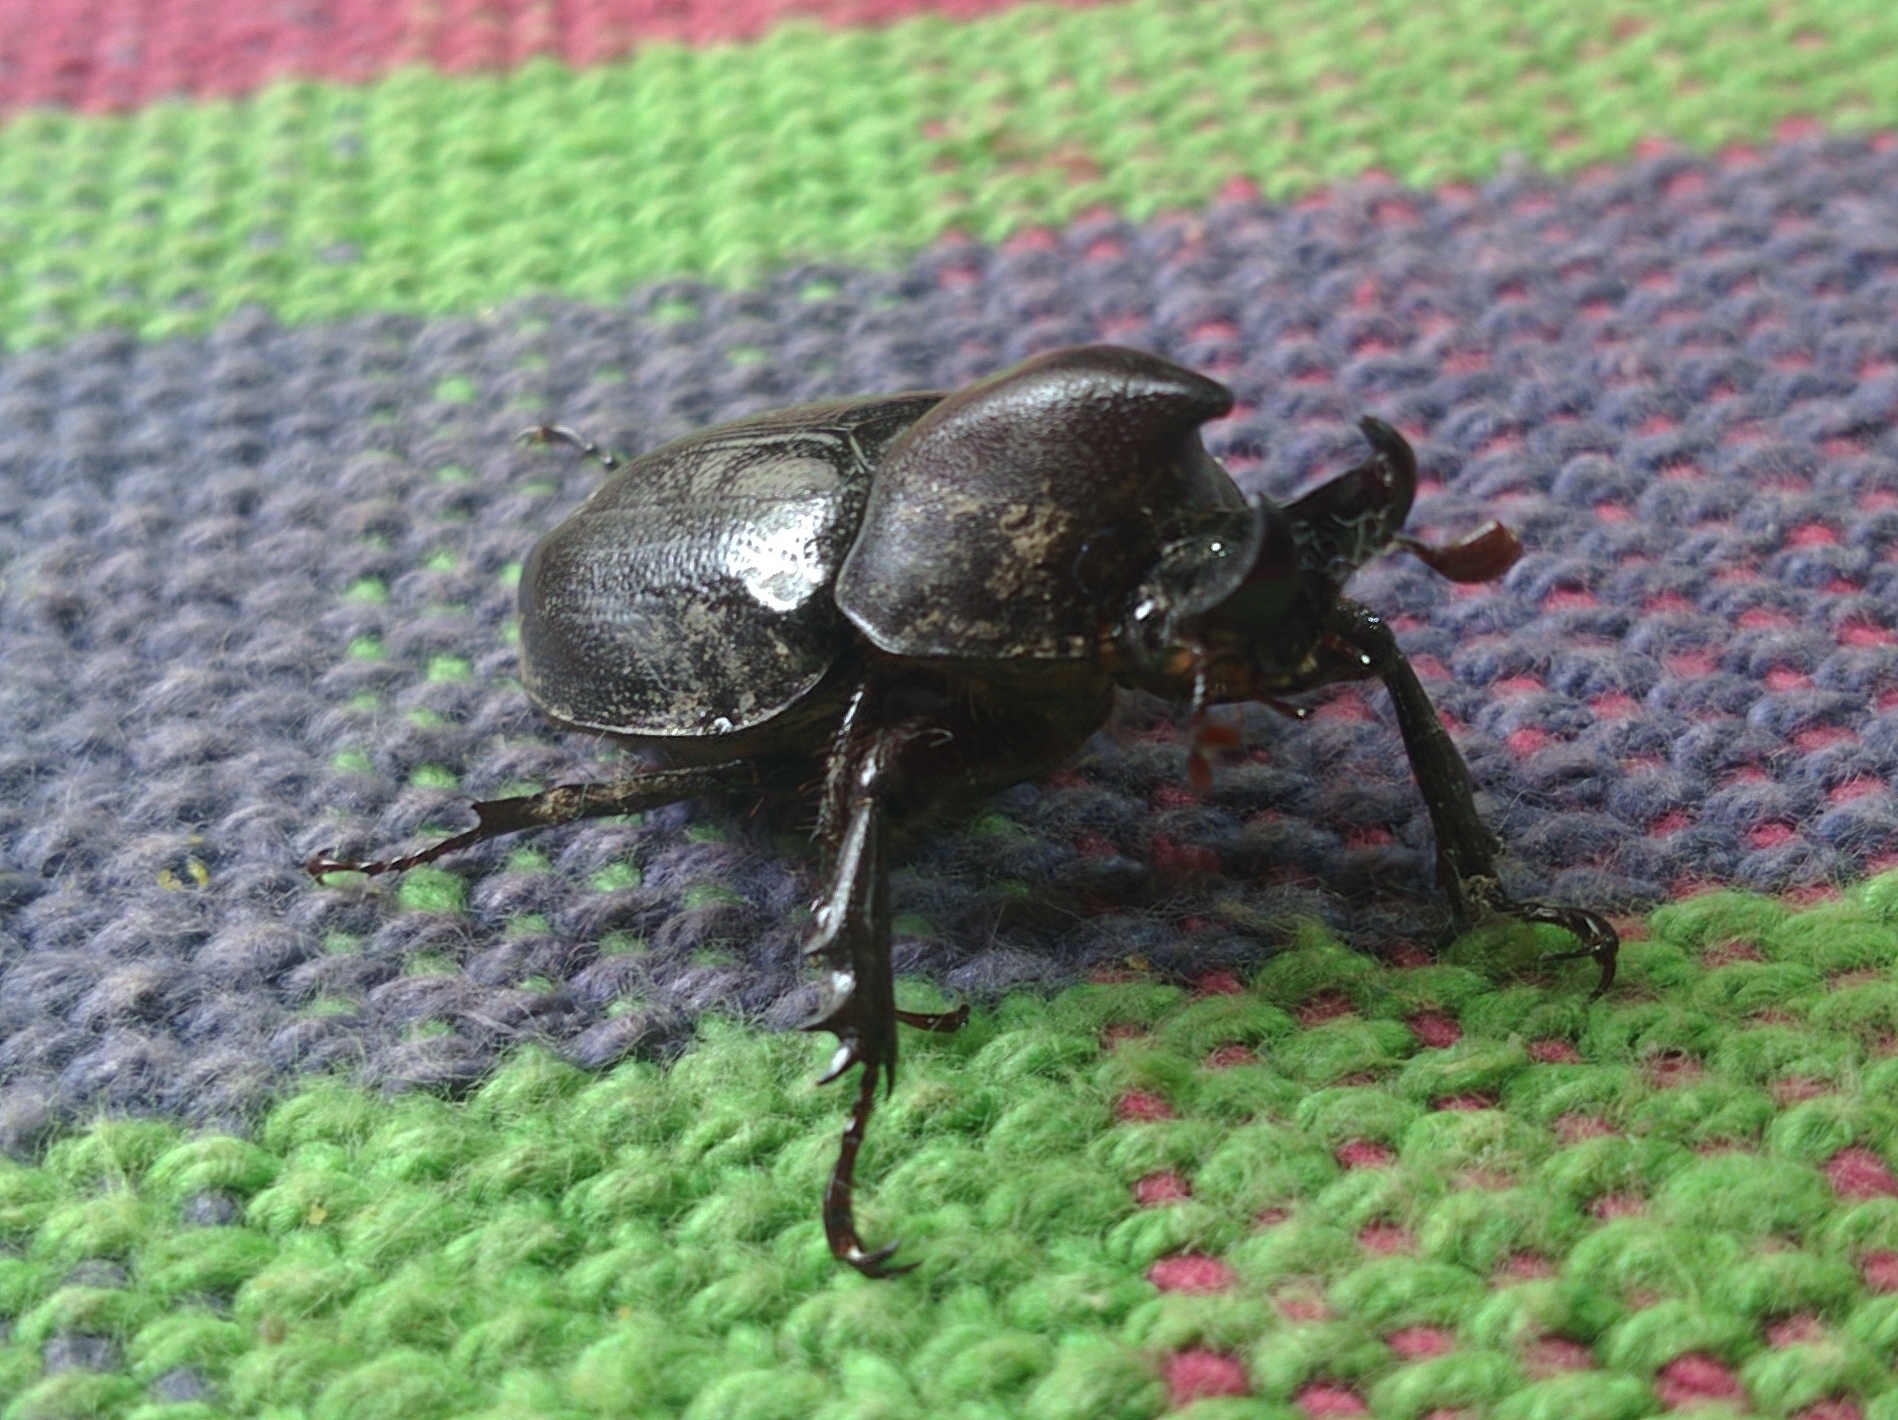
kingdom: Animalia
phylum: Arthropoda
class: Insecta
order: Coleoptera
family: Scarabaeidae
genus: Aegopsis
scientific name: Aegopsis curvicornis
